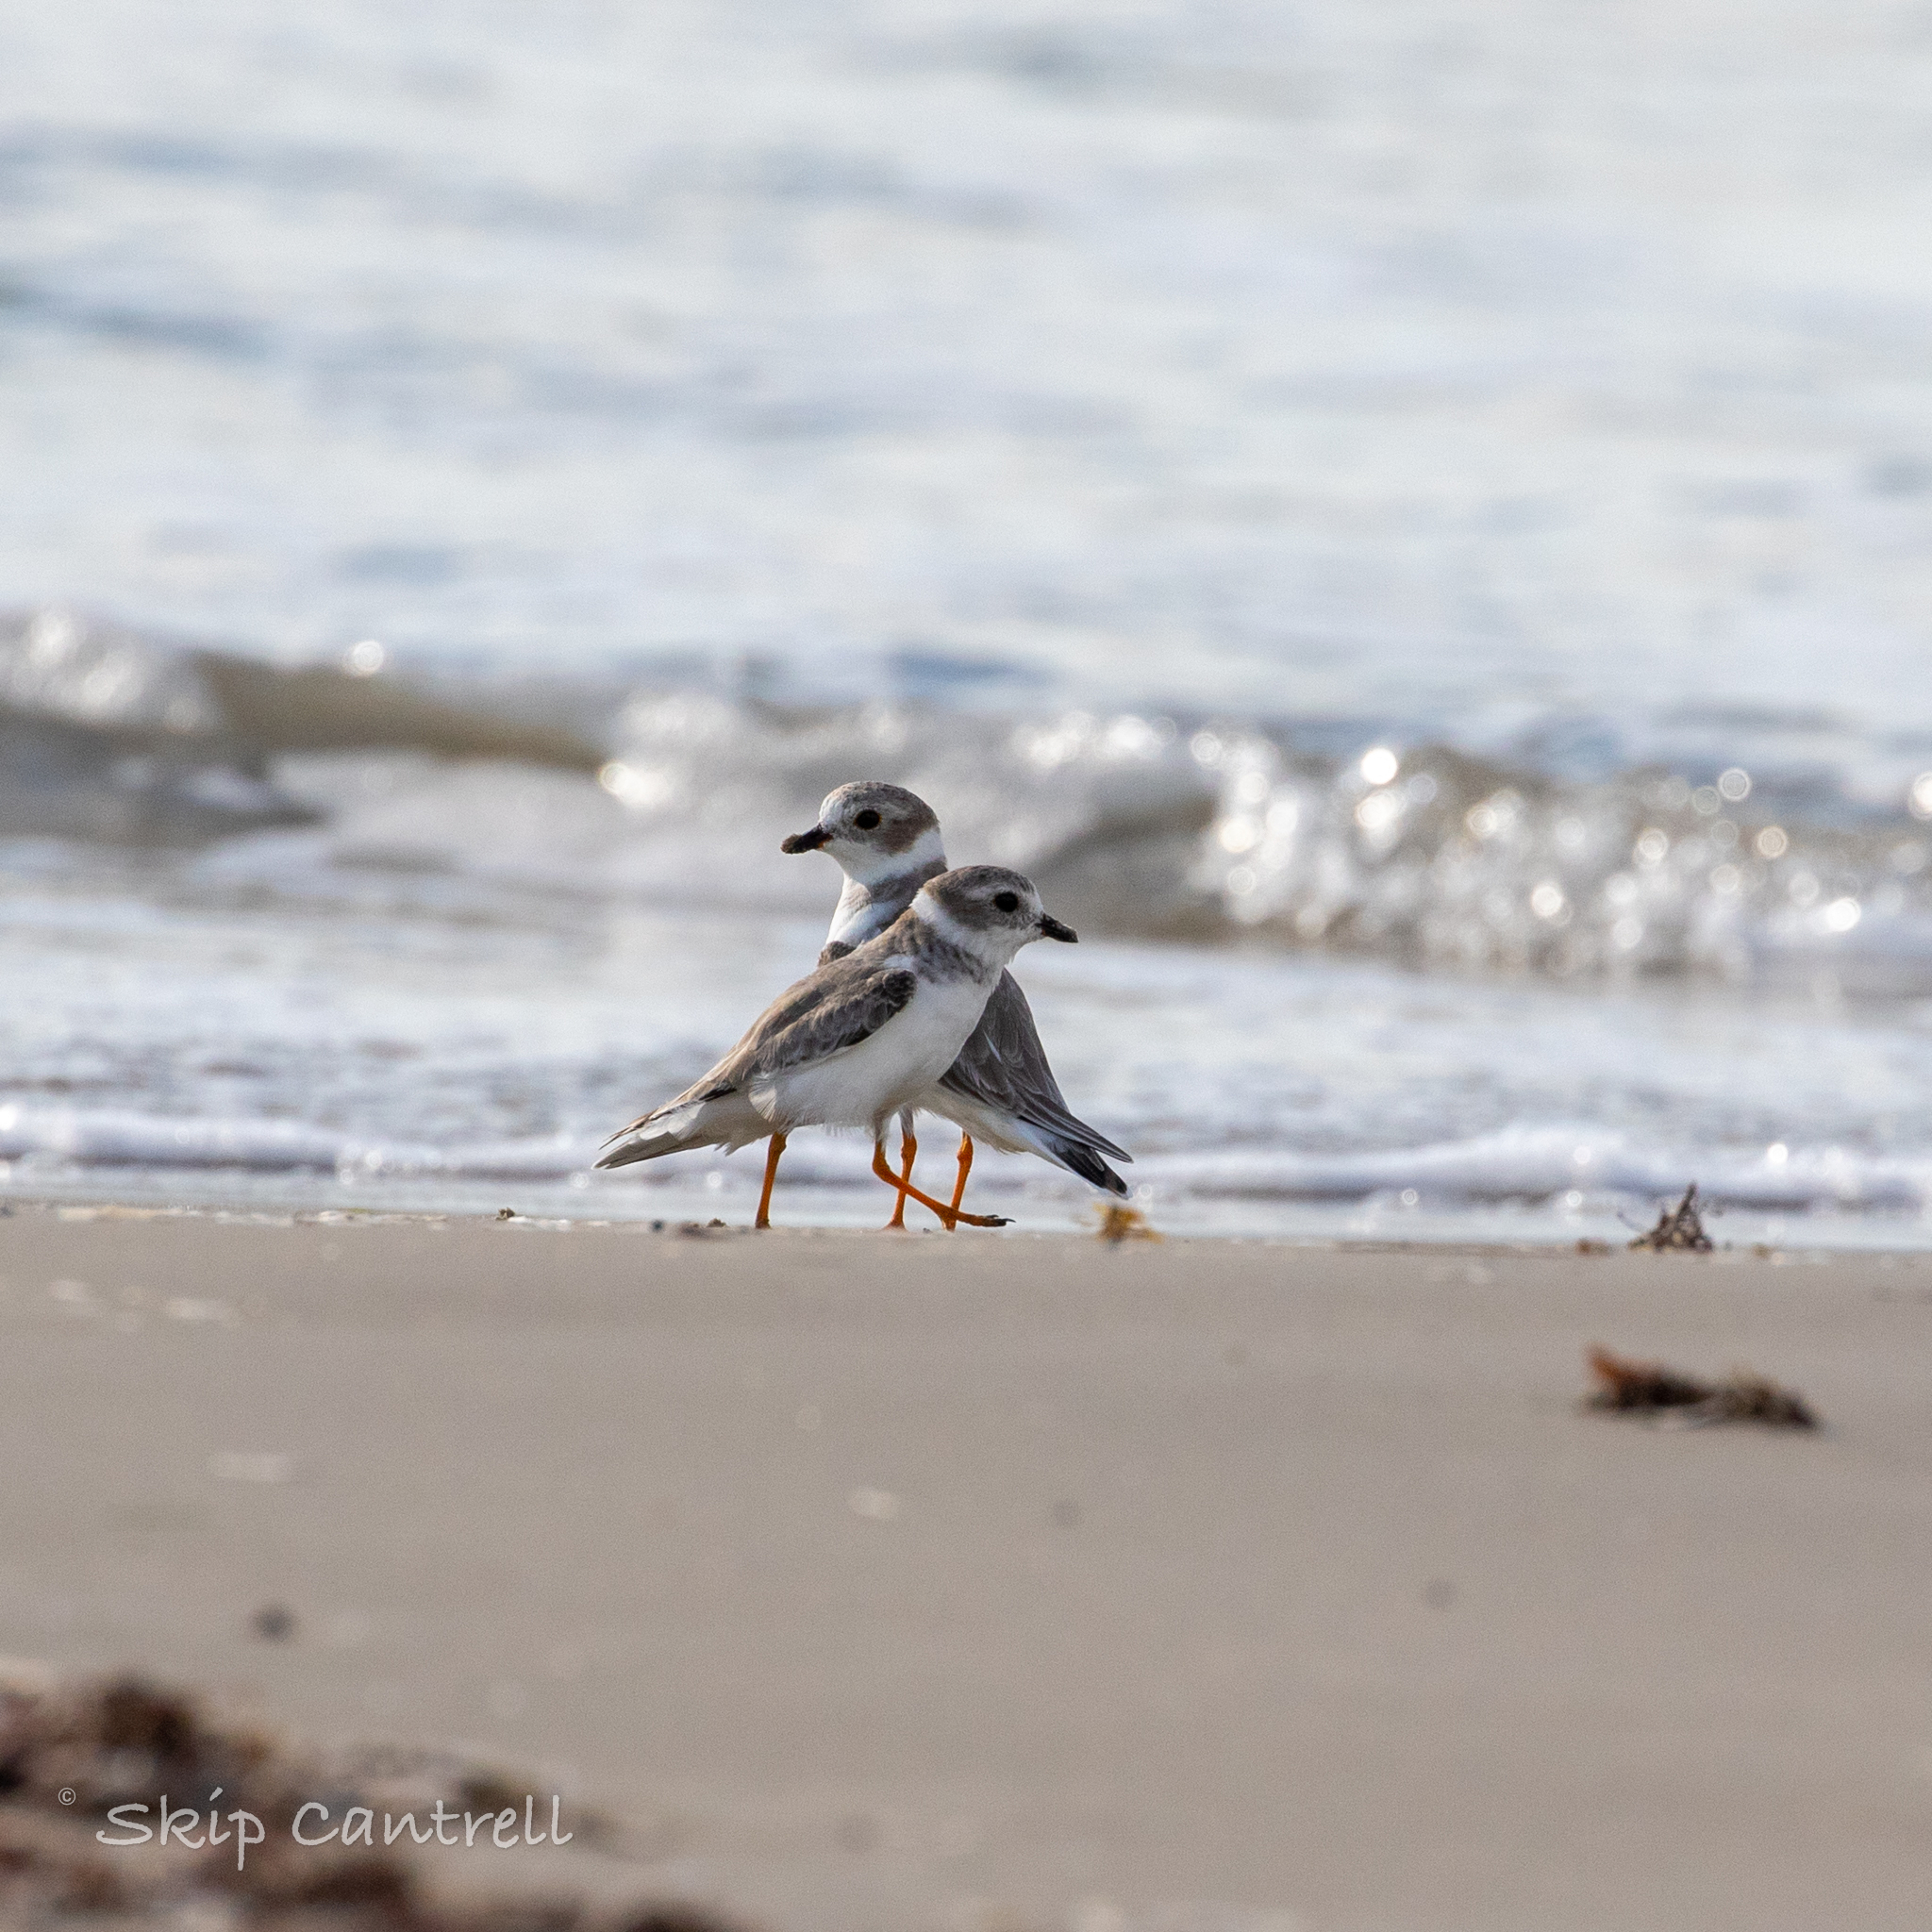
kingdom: Animalia
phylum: Chordata
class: Aves
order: Charadriiformes
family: Charadriidae
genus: Charadrius
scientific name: Charadrius melodus
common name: Piping plover
